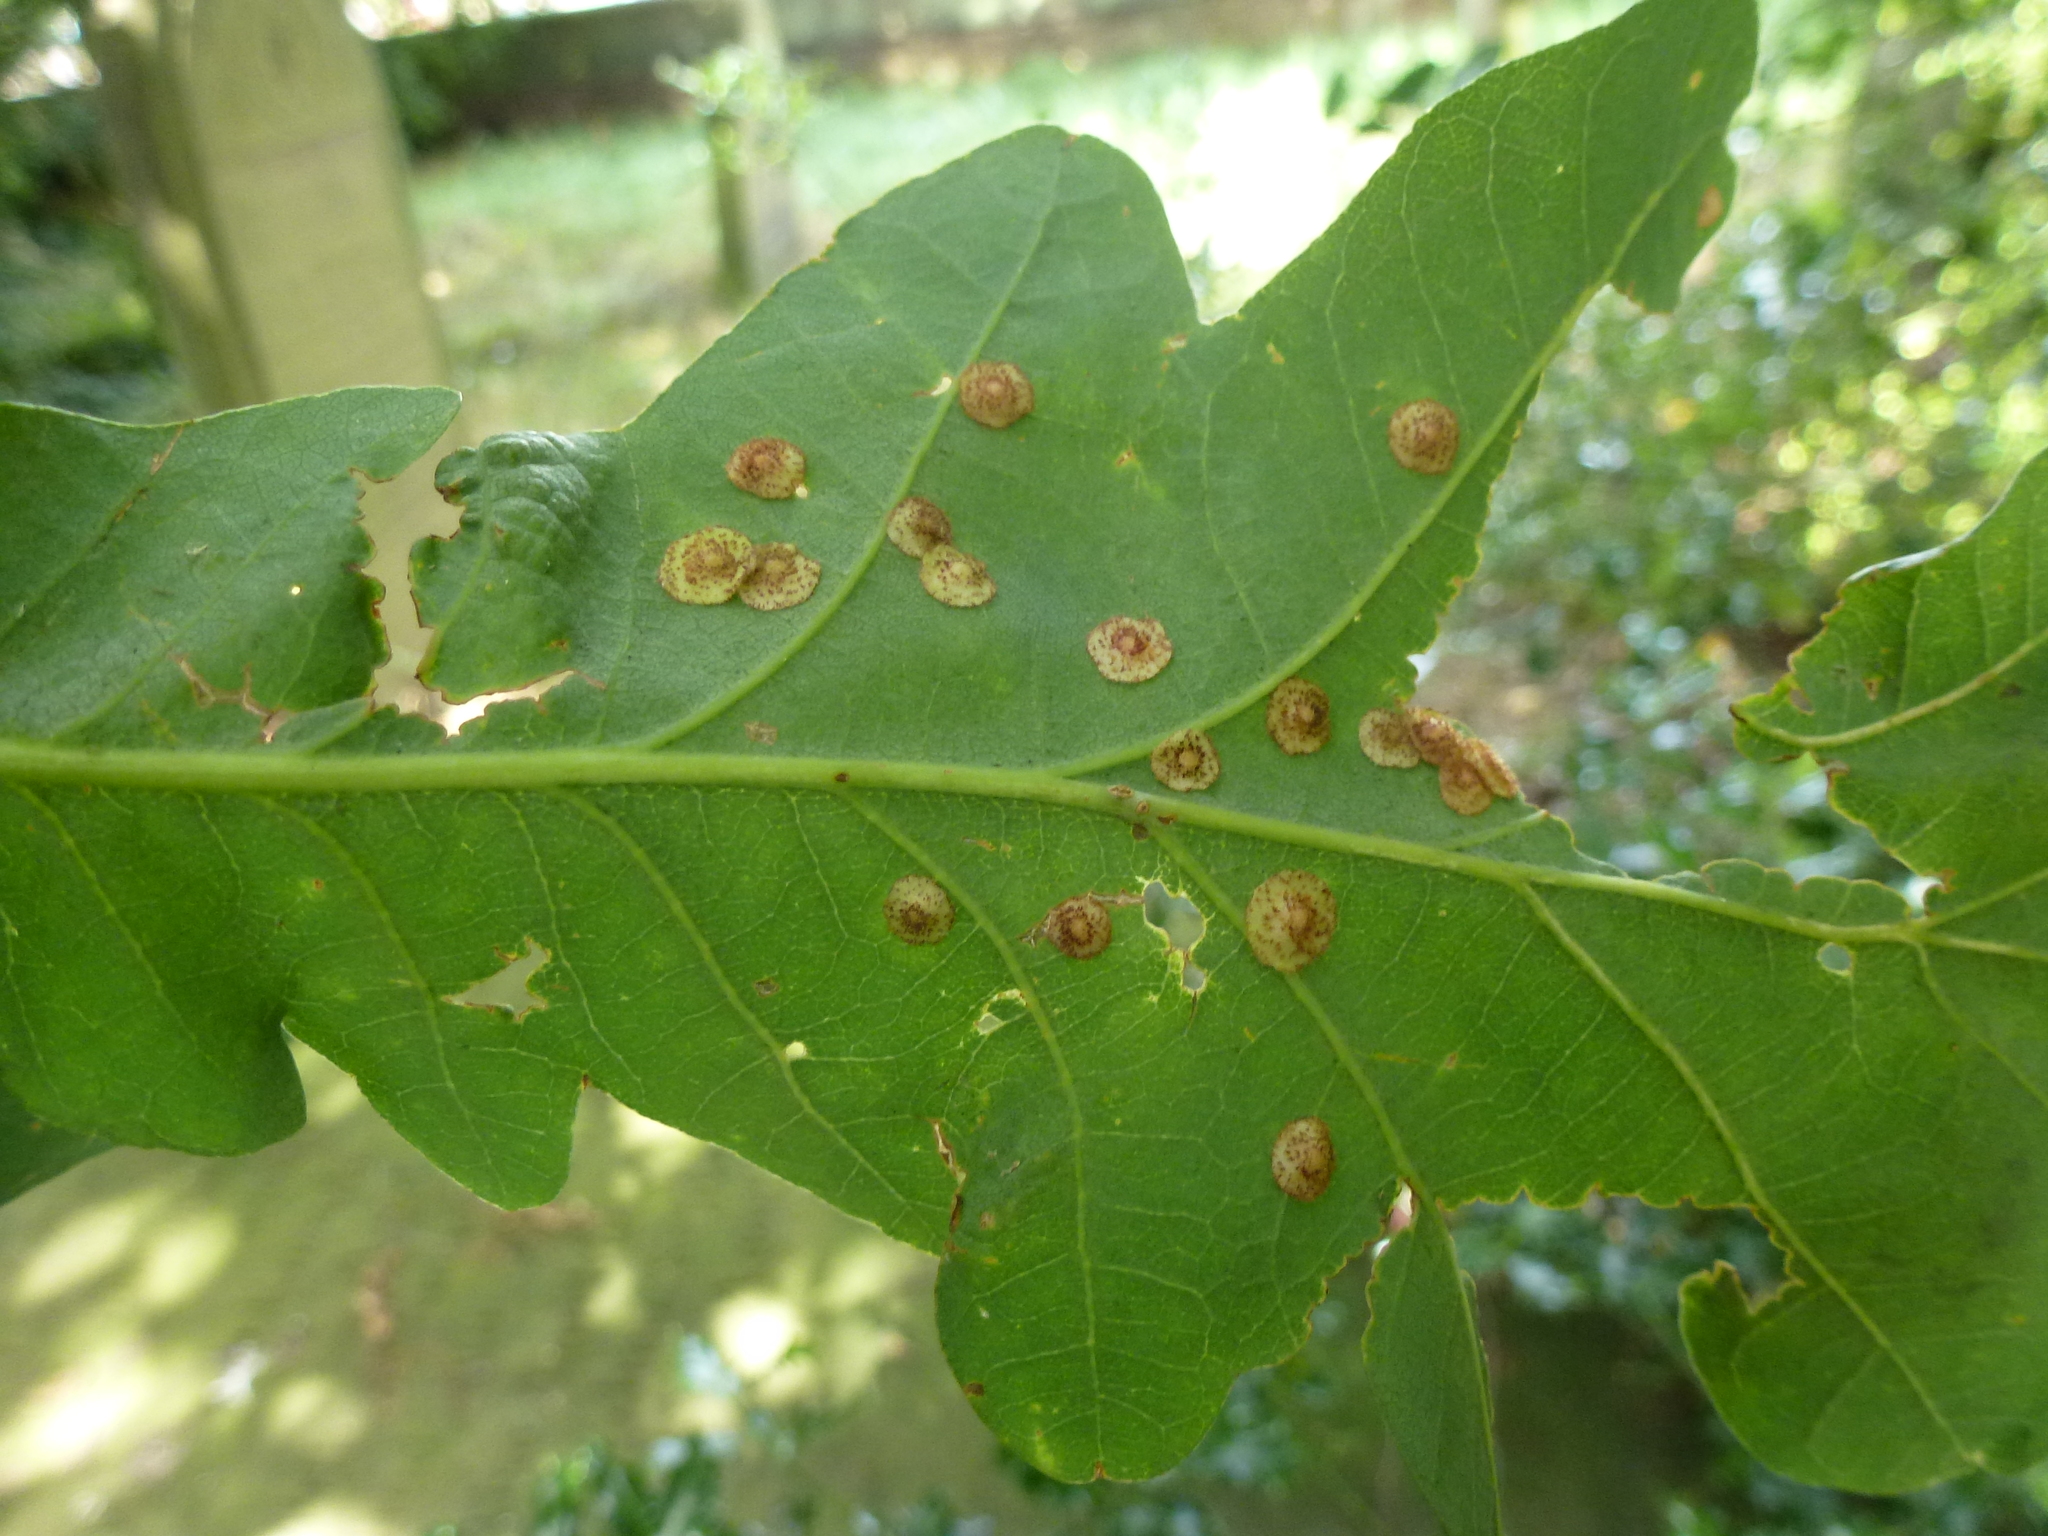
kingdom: Animalia
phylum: Arthropoda
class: Insecta
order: Hymenoptera
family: Cynipidae
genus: Neuroterus
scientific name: Neuroterus quercusbaccarum
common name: Common spangle gall
